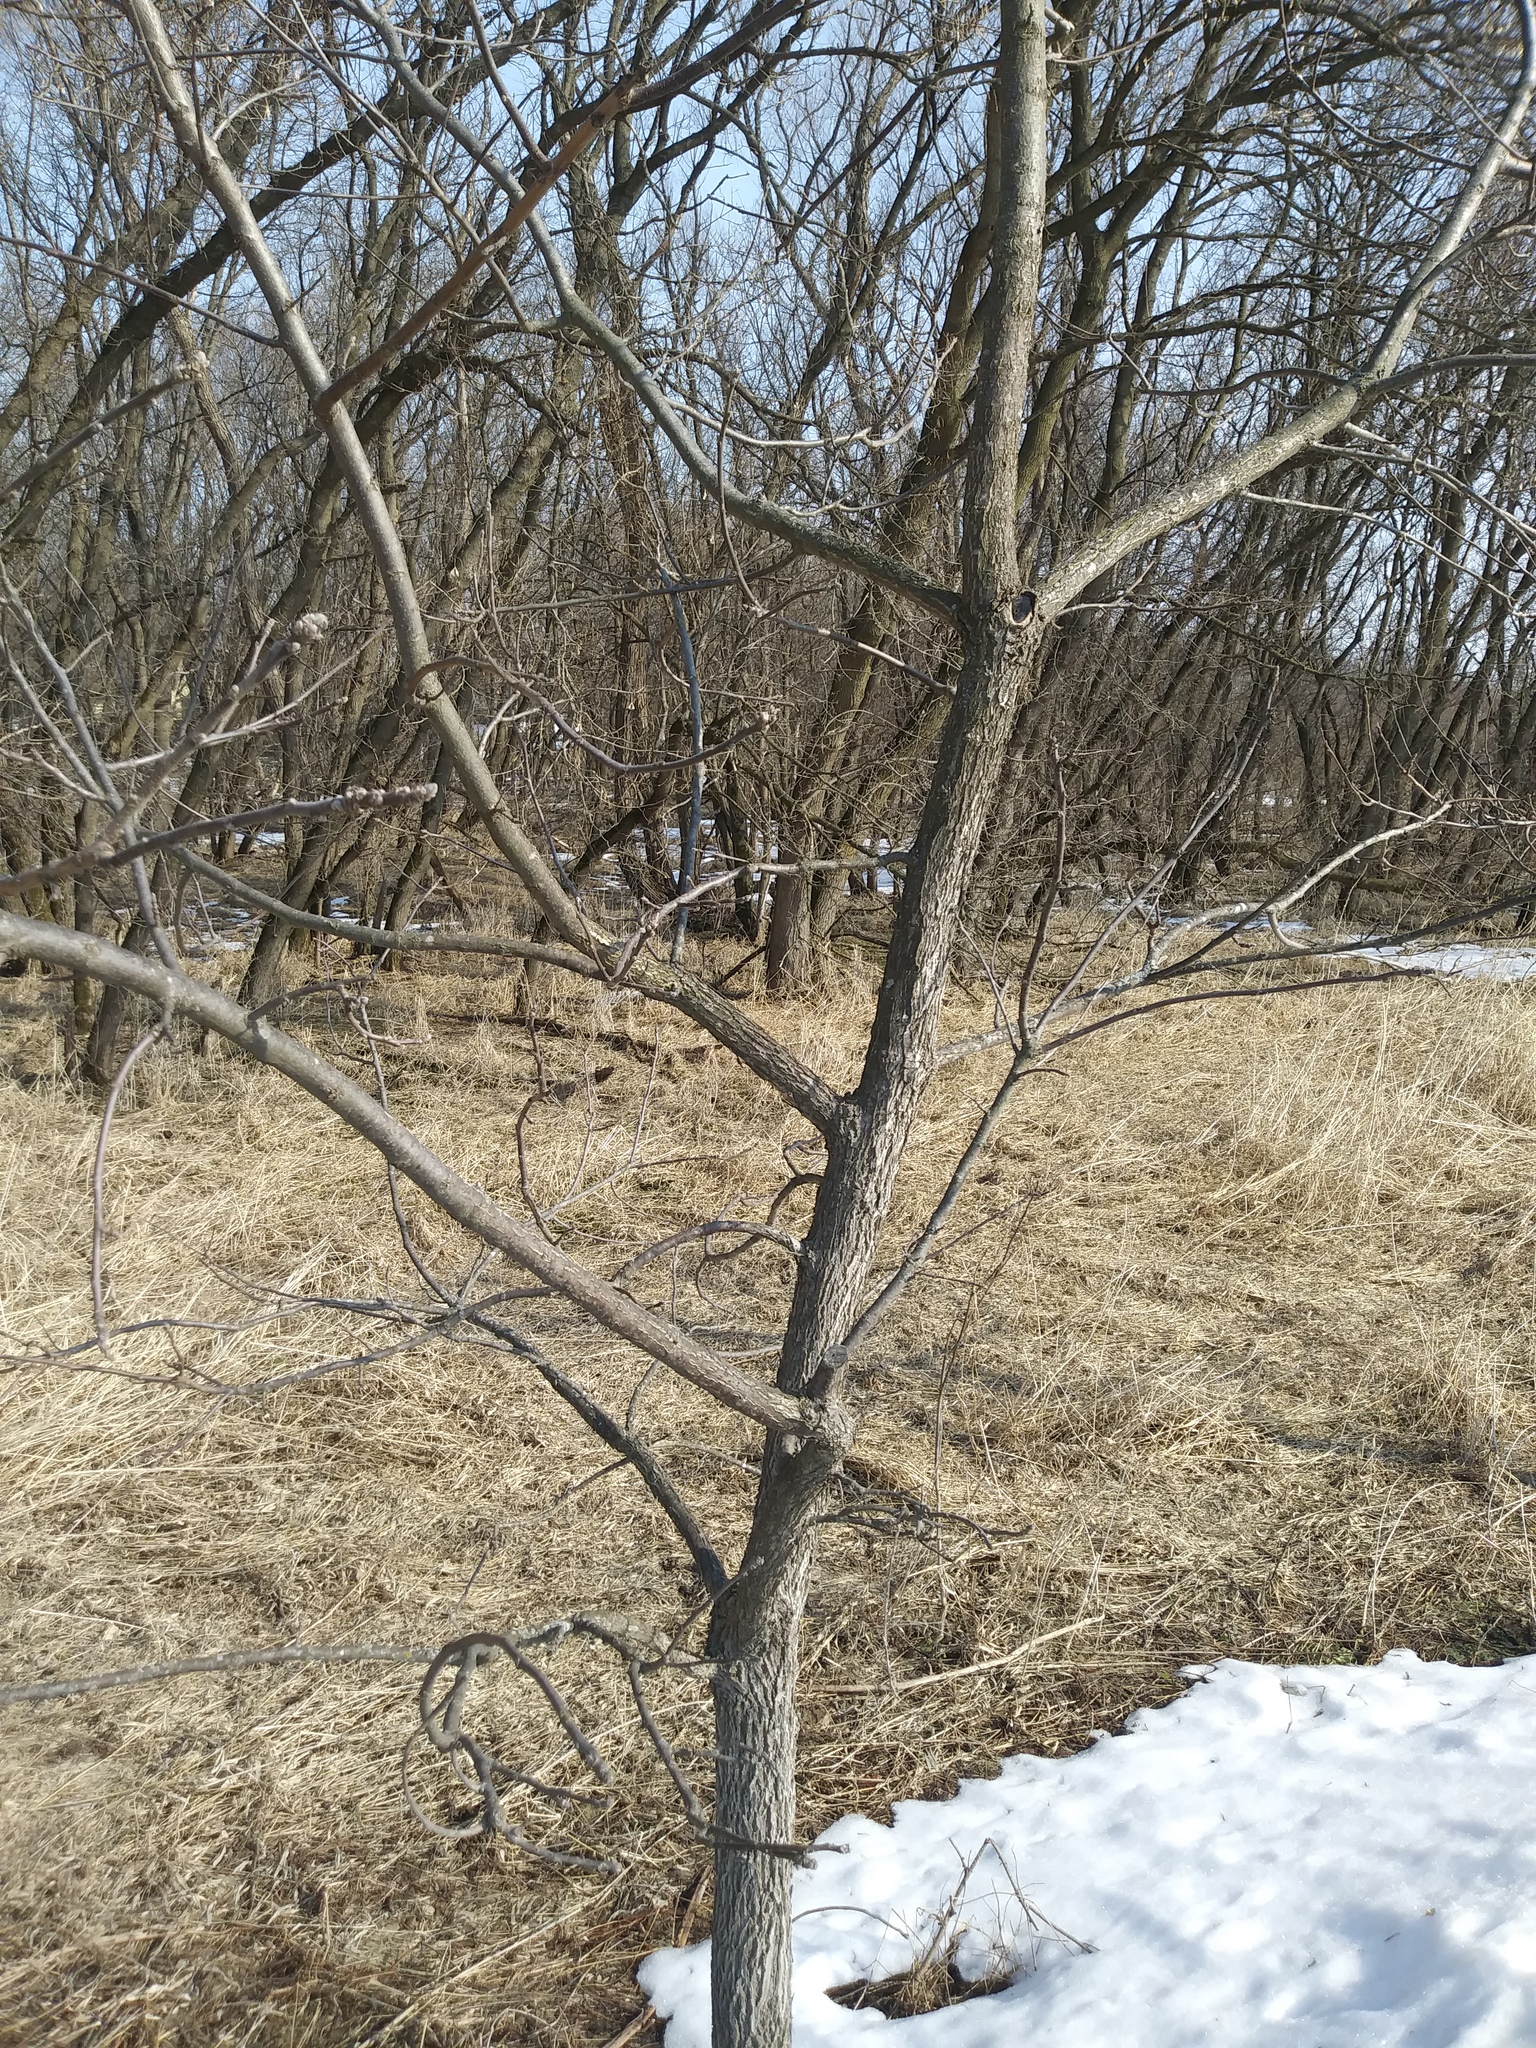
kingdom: Plantae
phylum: Tracheophyta
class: Magnoliopsida
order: Fagales
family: Juglandaceae
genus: Juglans
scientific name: Juglans nigra
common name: Black walnut
